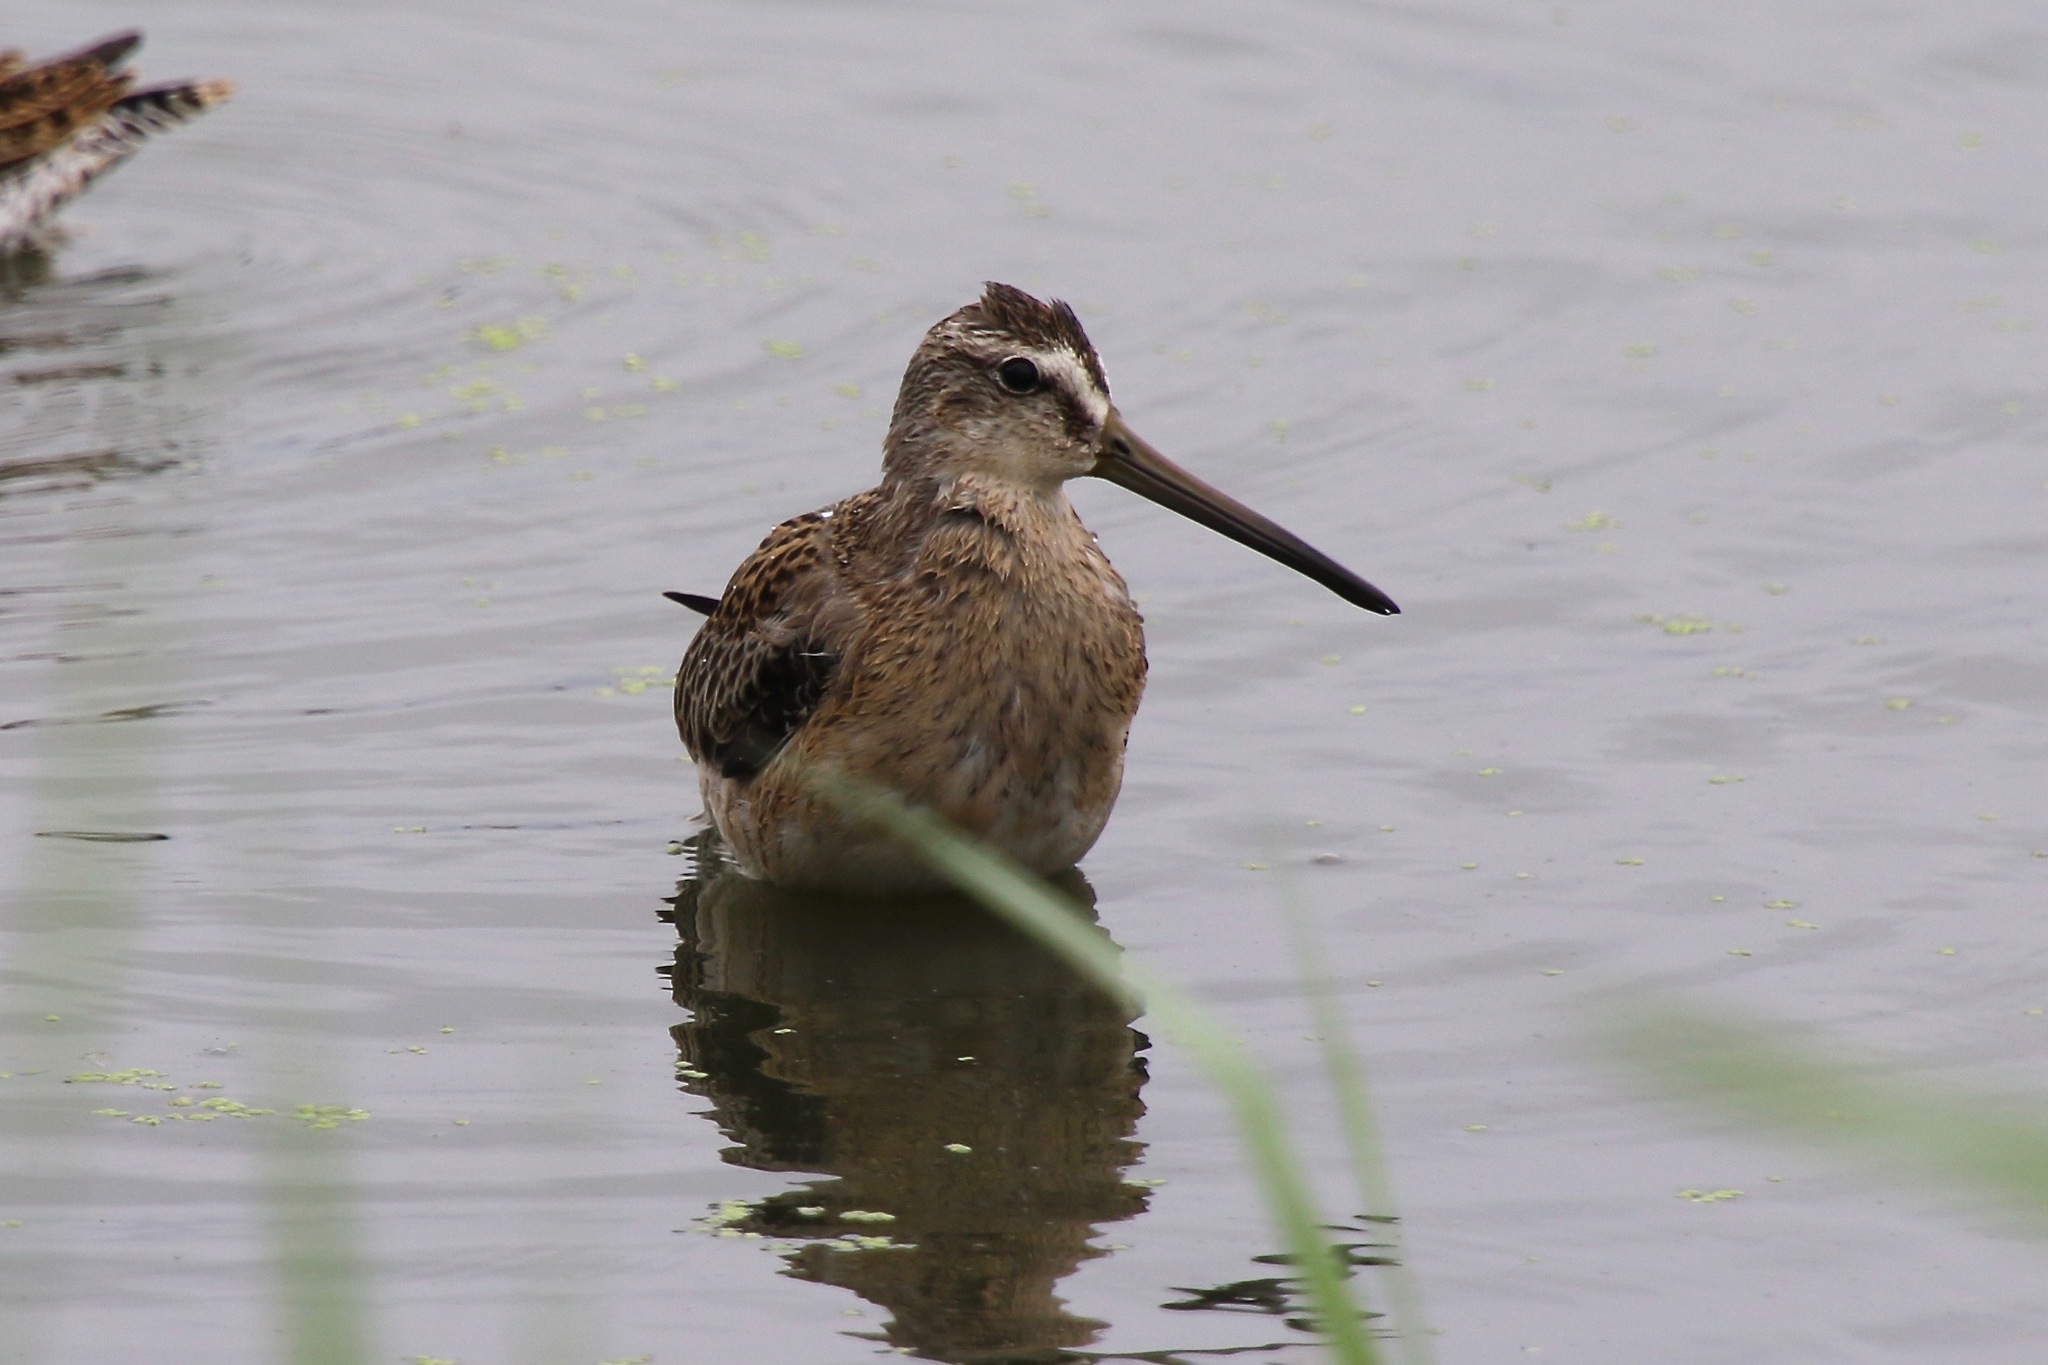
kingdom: Animalia
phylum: Chordata
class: Aves
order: Charadriiformes
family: Scolopacidae
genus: Limnodromus
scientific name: Limnodromus griseus
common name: Short-billed dowitcher
